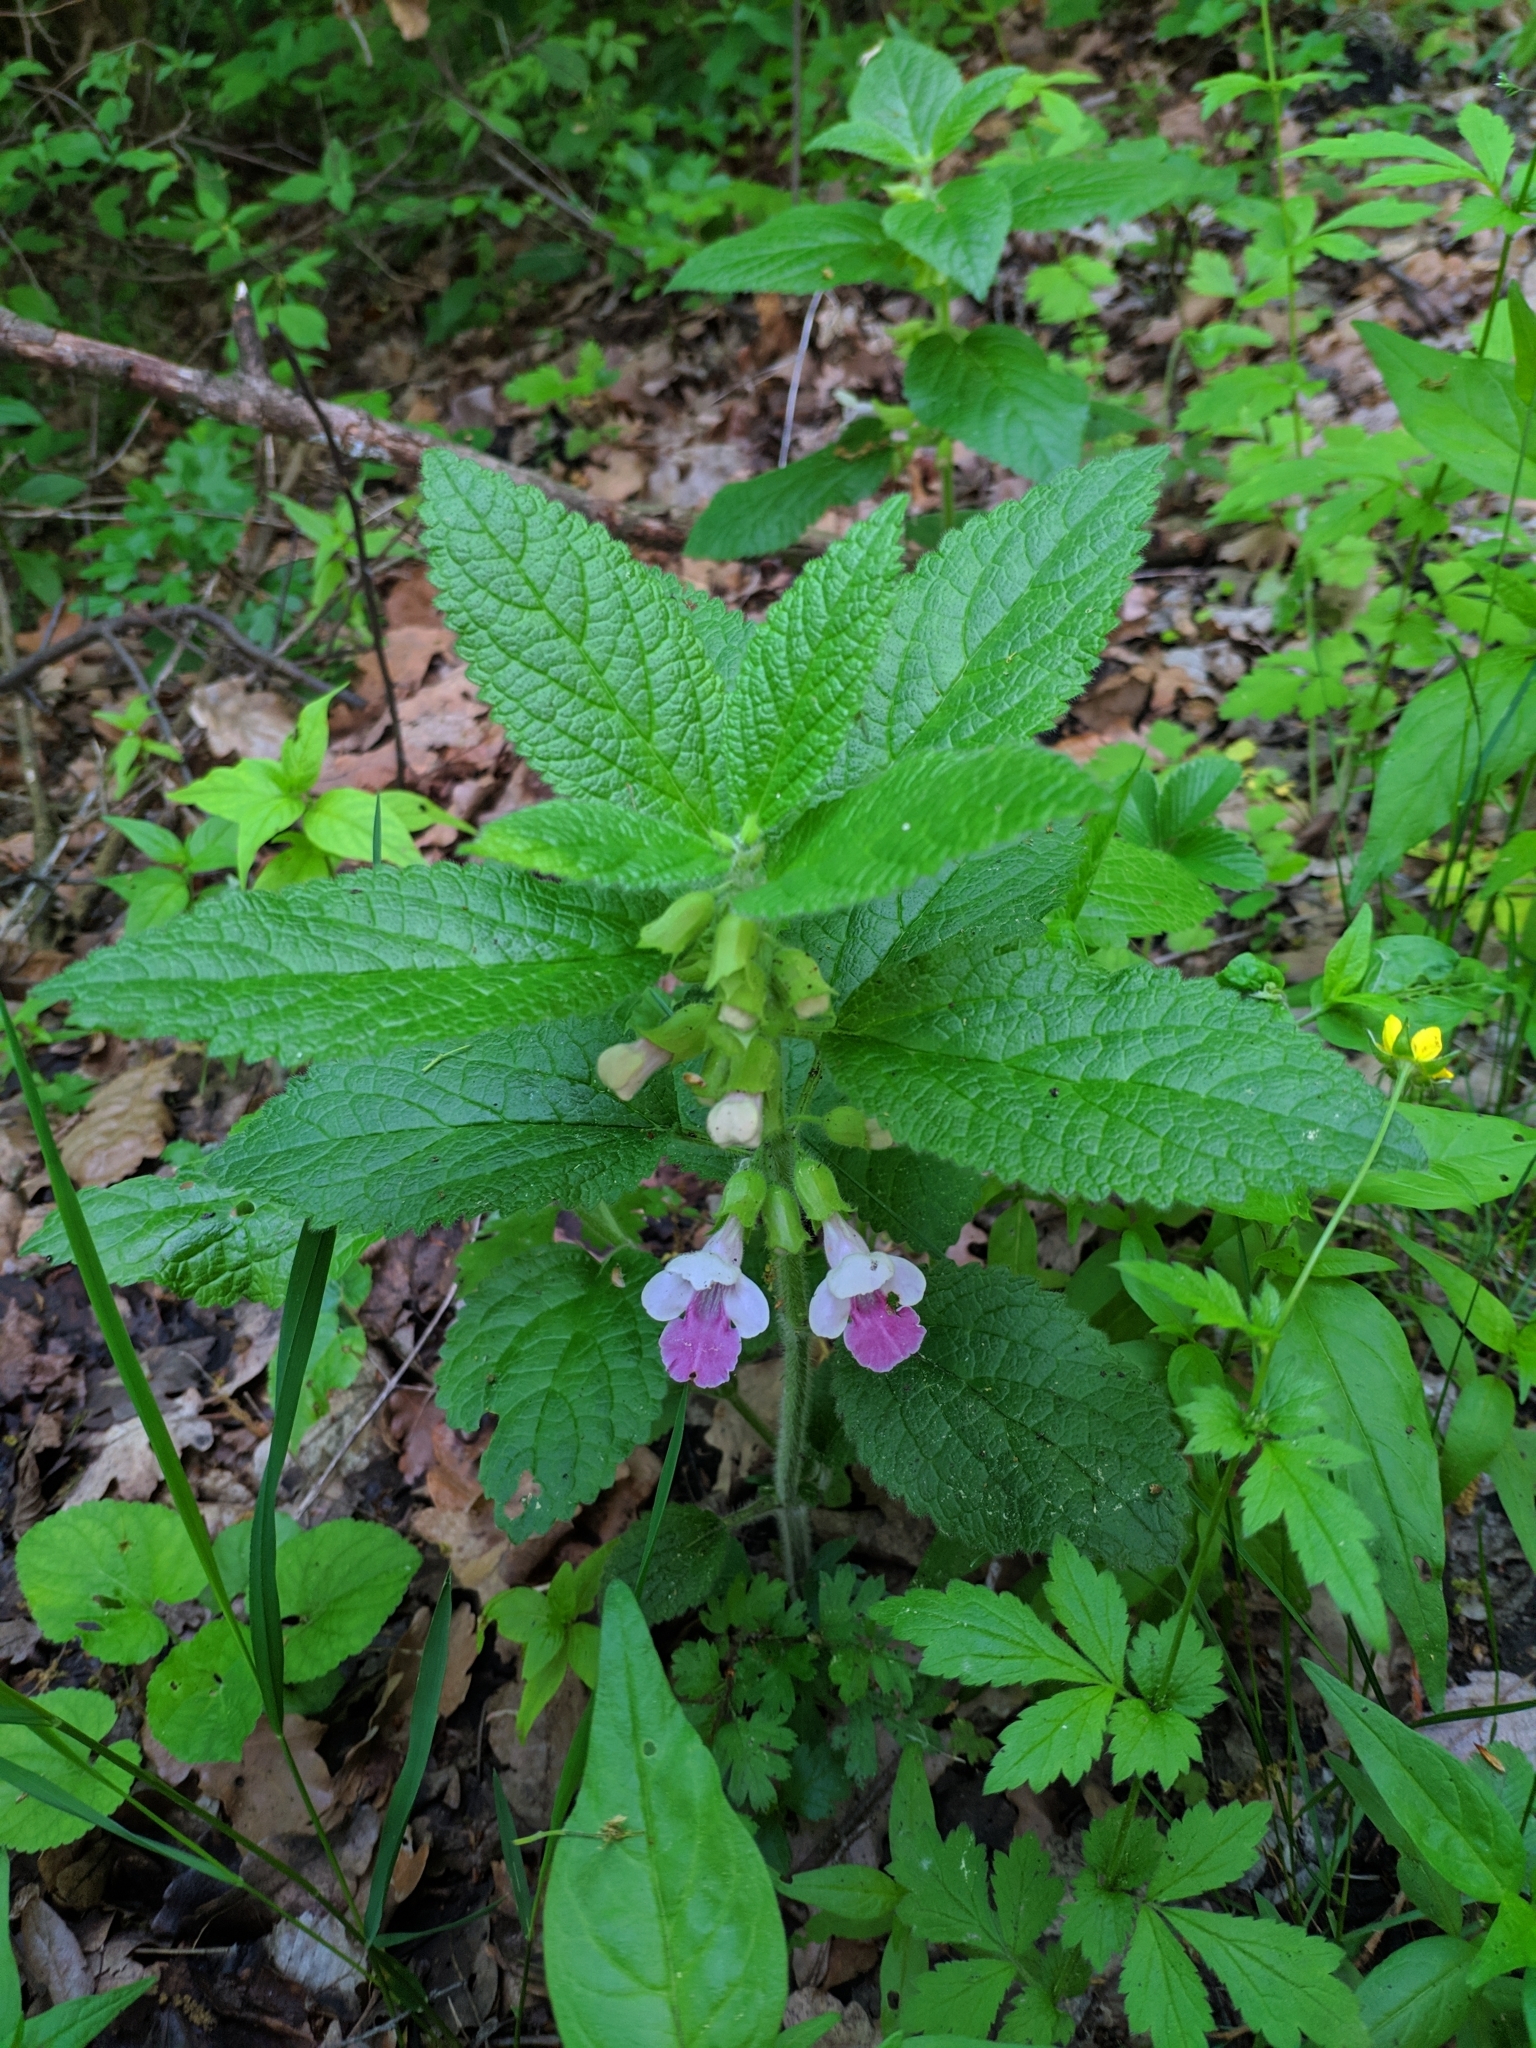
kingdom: Plantae
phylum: Tracheophyta
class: Magnoliopsida
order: Lamiales
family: Lamiaceae
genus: Melittis
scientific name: Melittis melissophyllum
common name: Bastard balm
